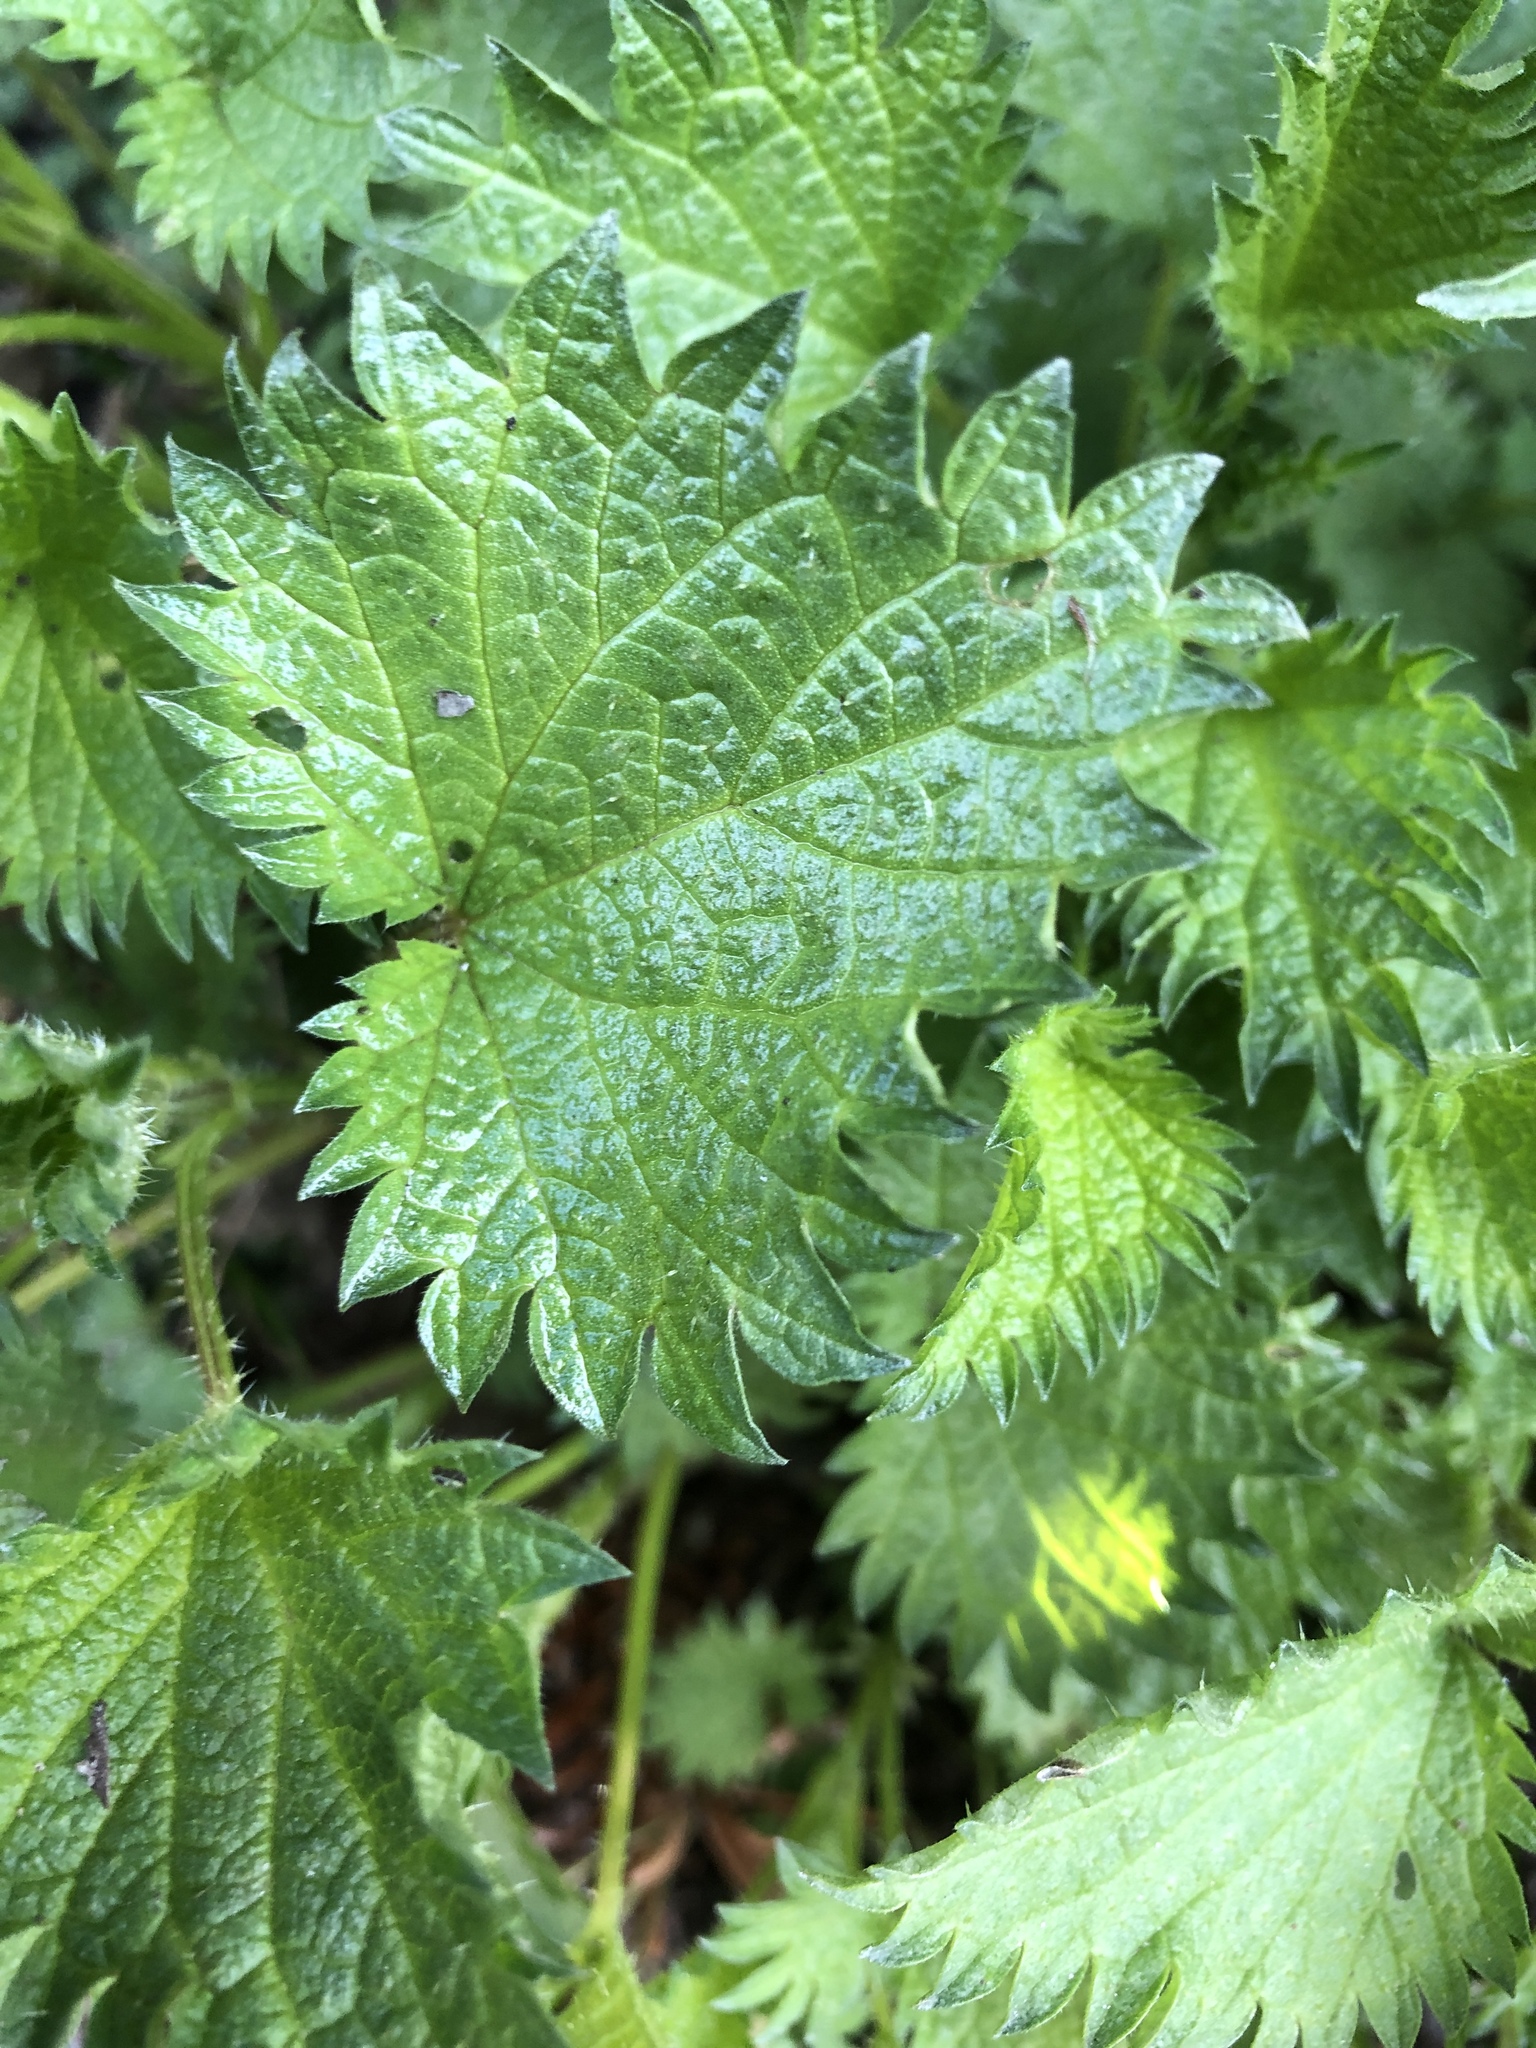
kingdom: Plantae
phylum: Tracheophyta
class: Magnoliopsida
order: Rosales
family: Urticaceae
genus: Urtica
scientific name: Urtica urens
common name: Dwarf nettle
